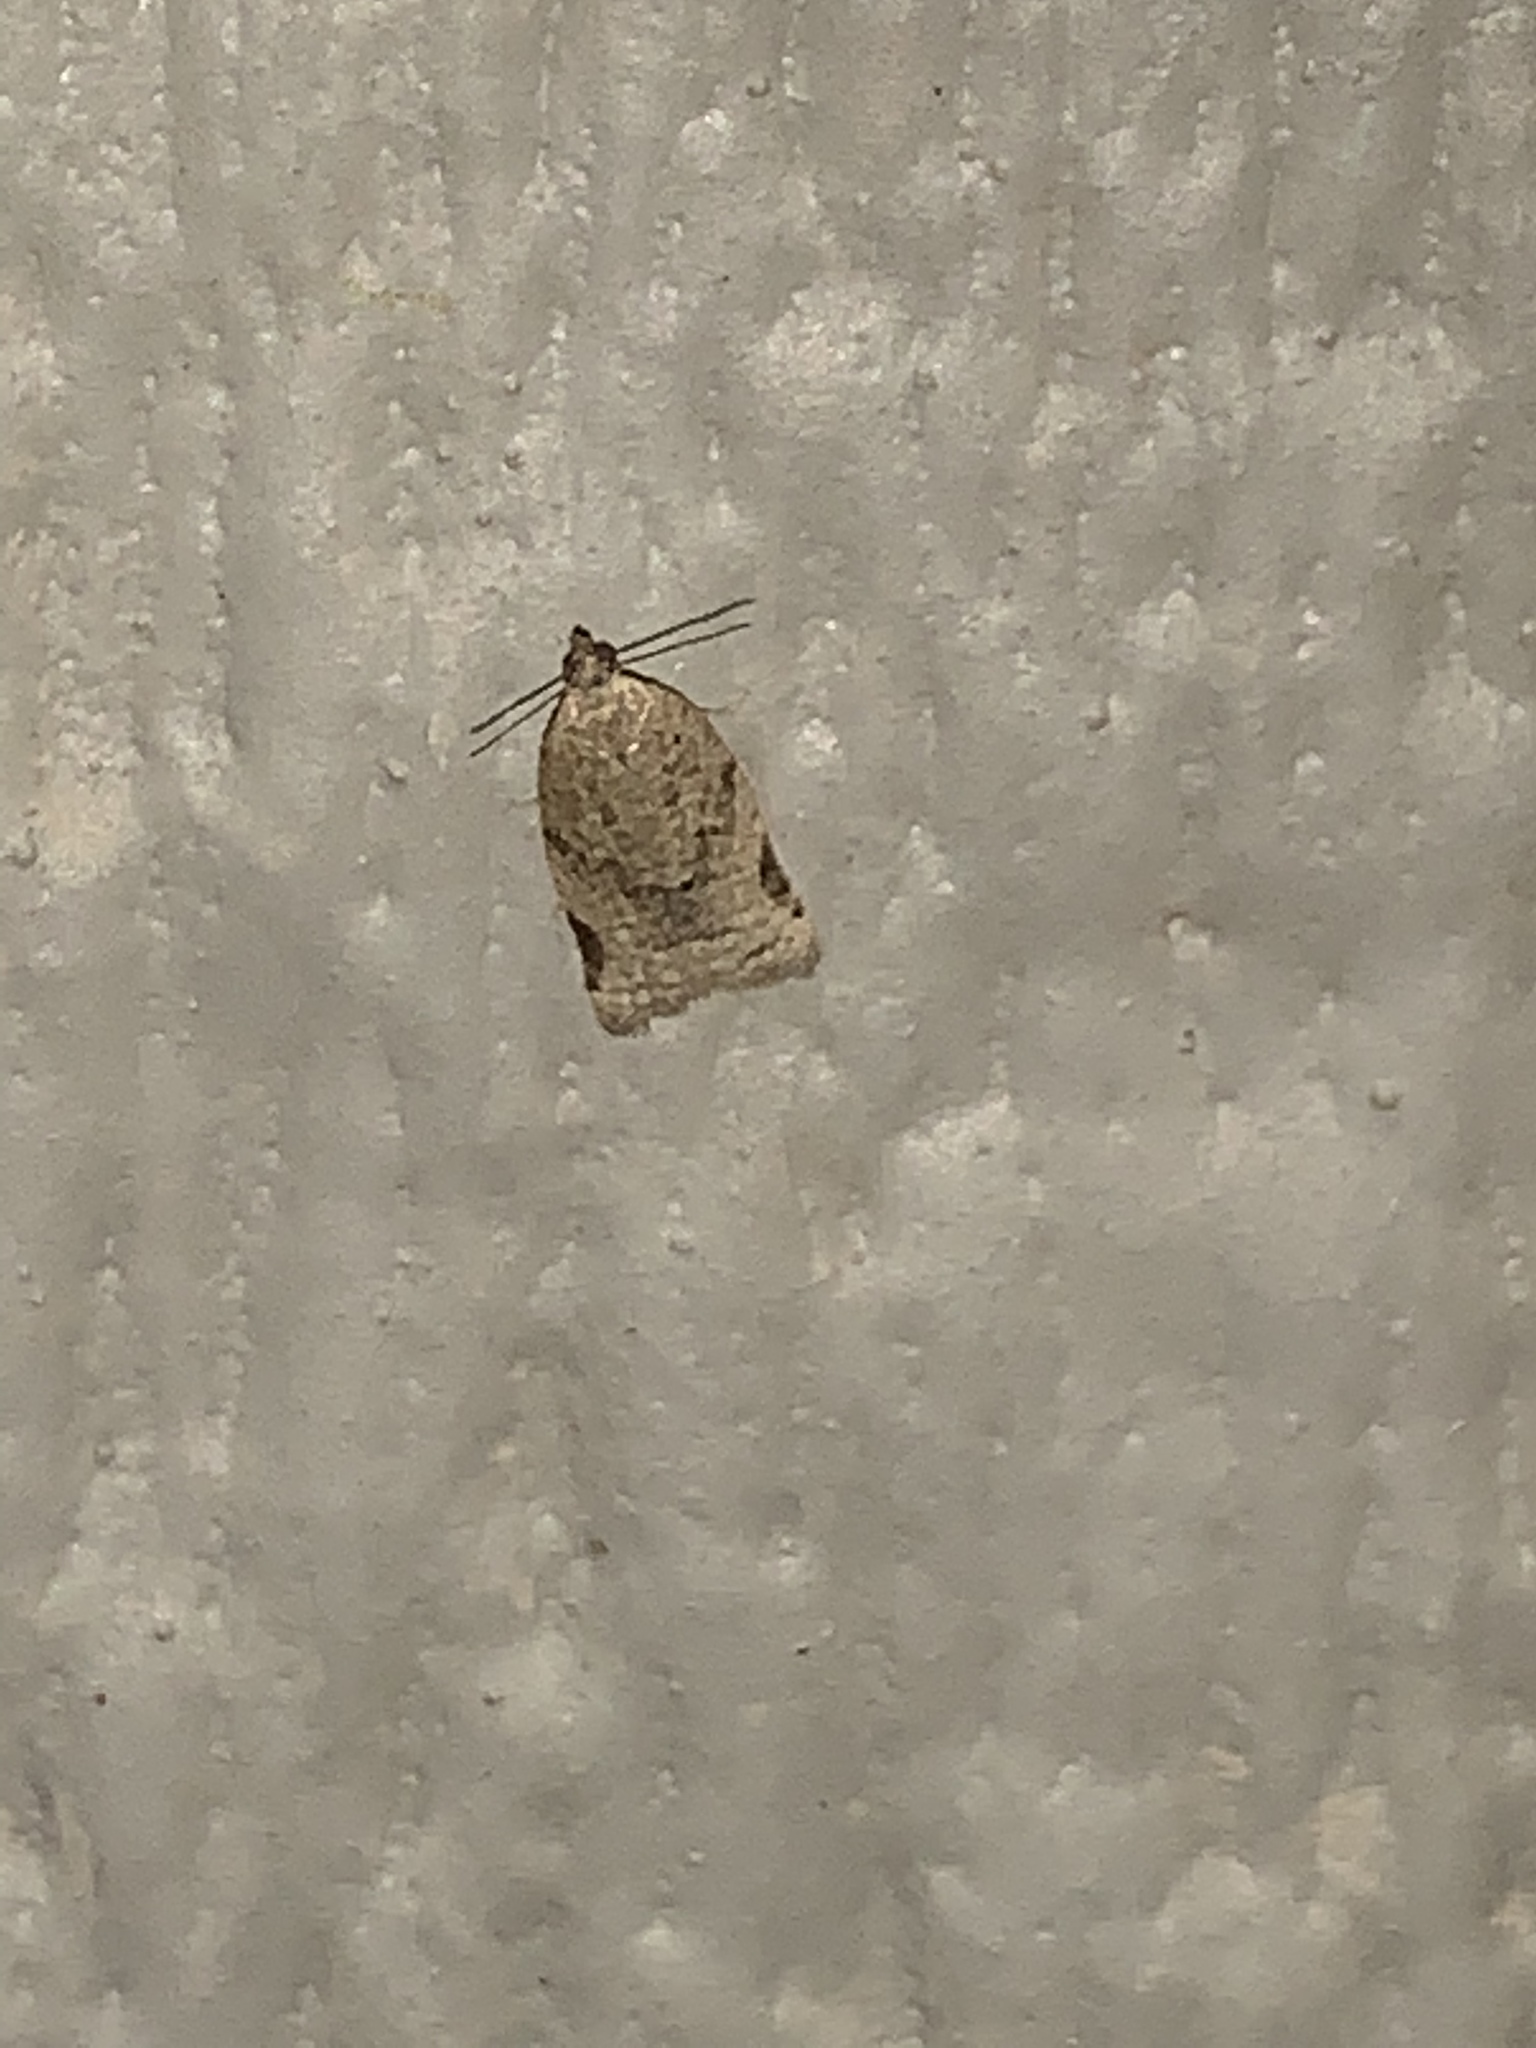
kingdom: Animalia
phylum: Arthropoda
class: Insecta
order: Lepidoptera
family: Tortricidae
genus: Clepsis
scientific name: Clepsis virescana
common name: Greenish apple moth
